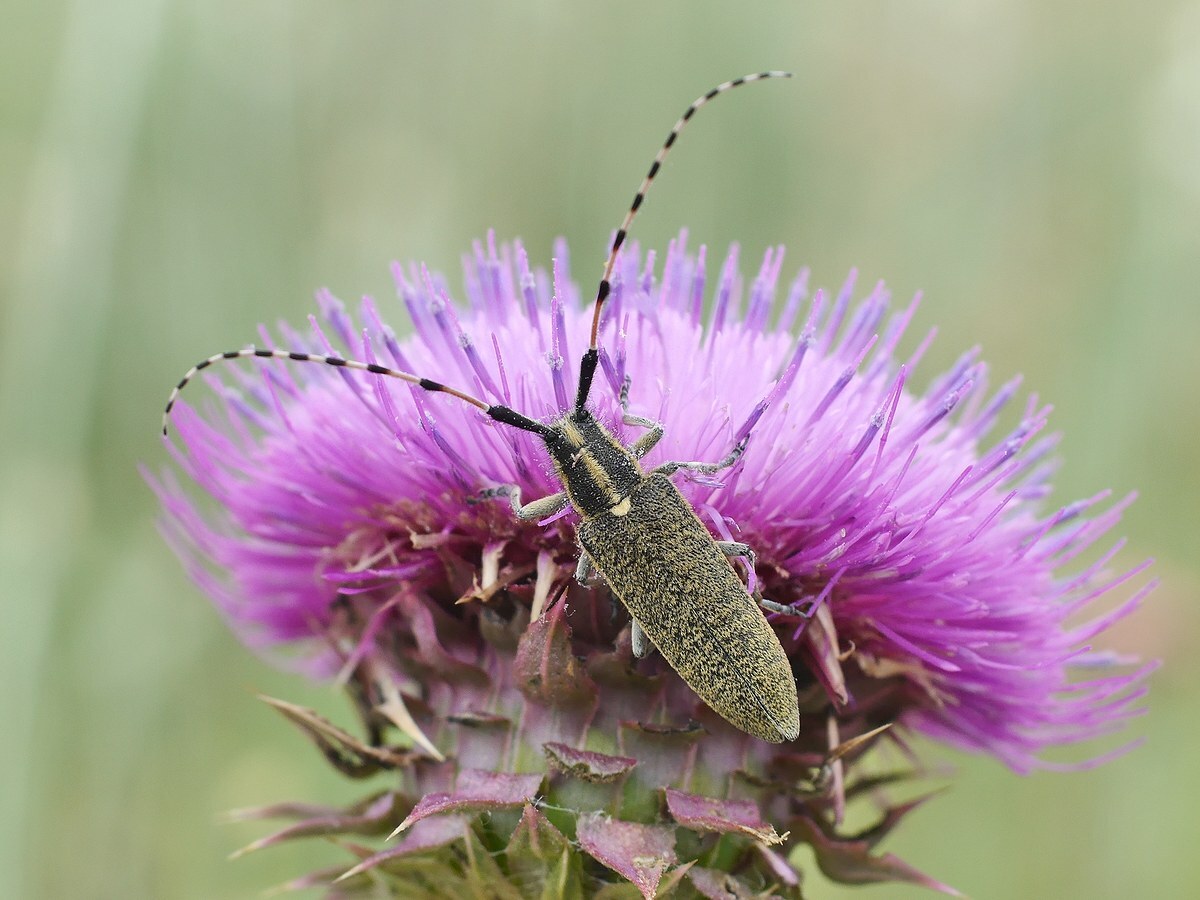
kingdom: Animalia
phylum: Arthropoda
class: Insecta
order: Coleoptera
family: Cerambycidae
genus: Agapanthia
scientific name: Agapanthia dahlii
